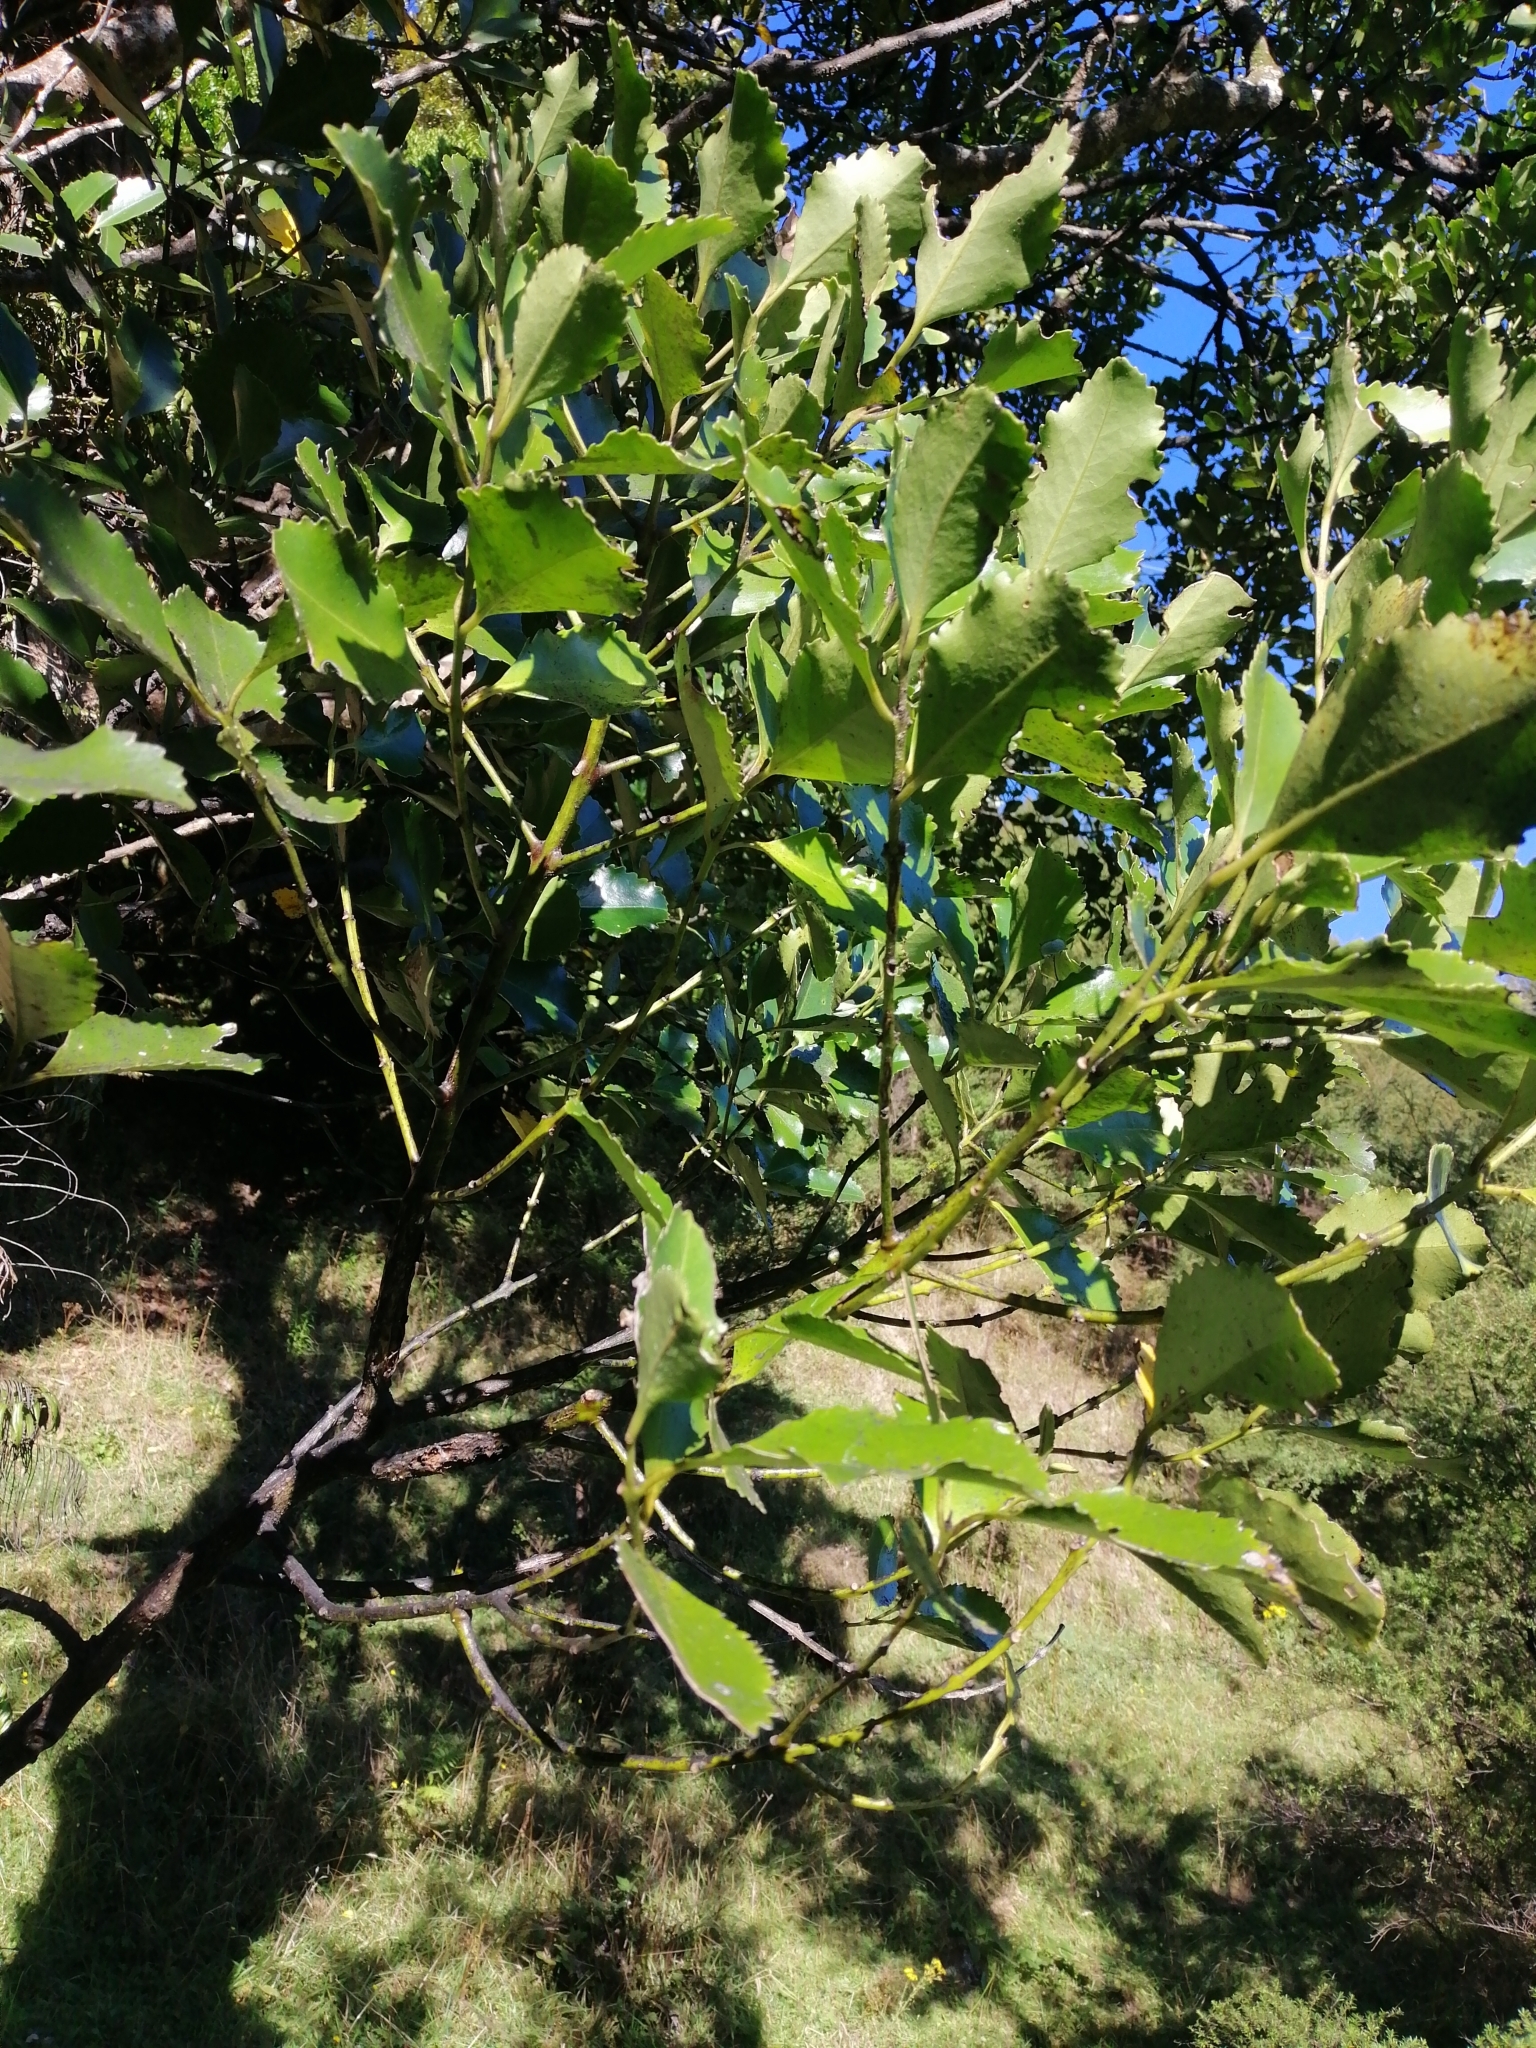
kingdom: Plantae
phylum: Tracheophyta
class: Magnoliopsida
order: Laurales
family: Atherospermataceae
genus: Laurelia
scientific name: Laurelia novae-zelandiae
